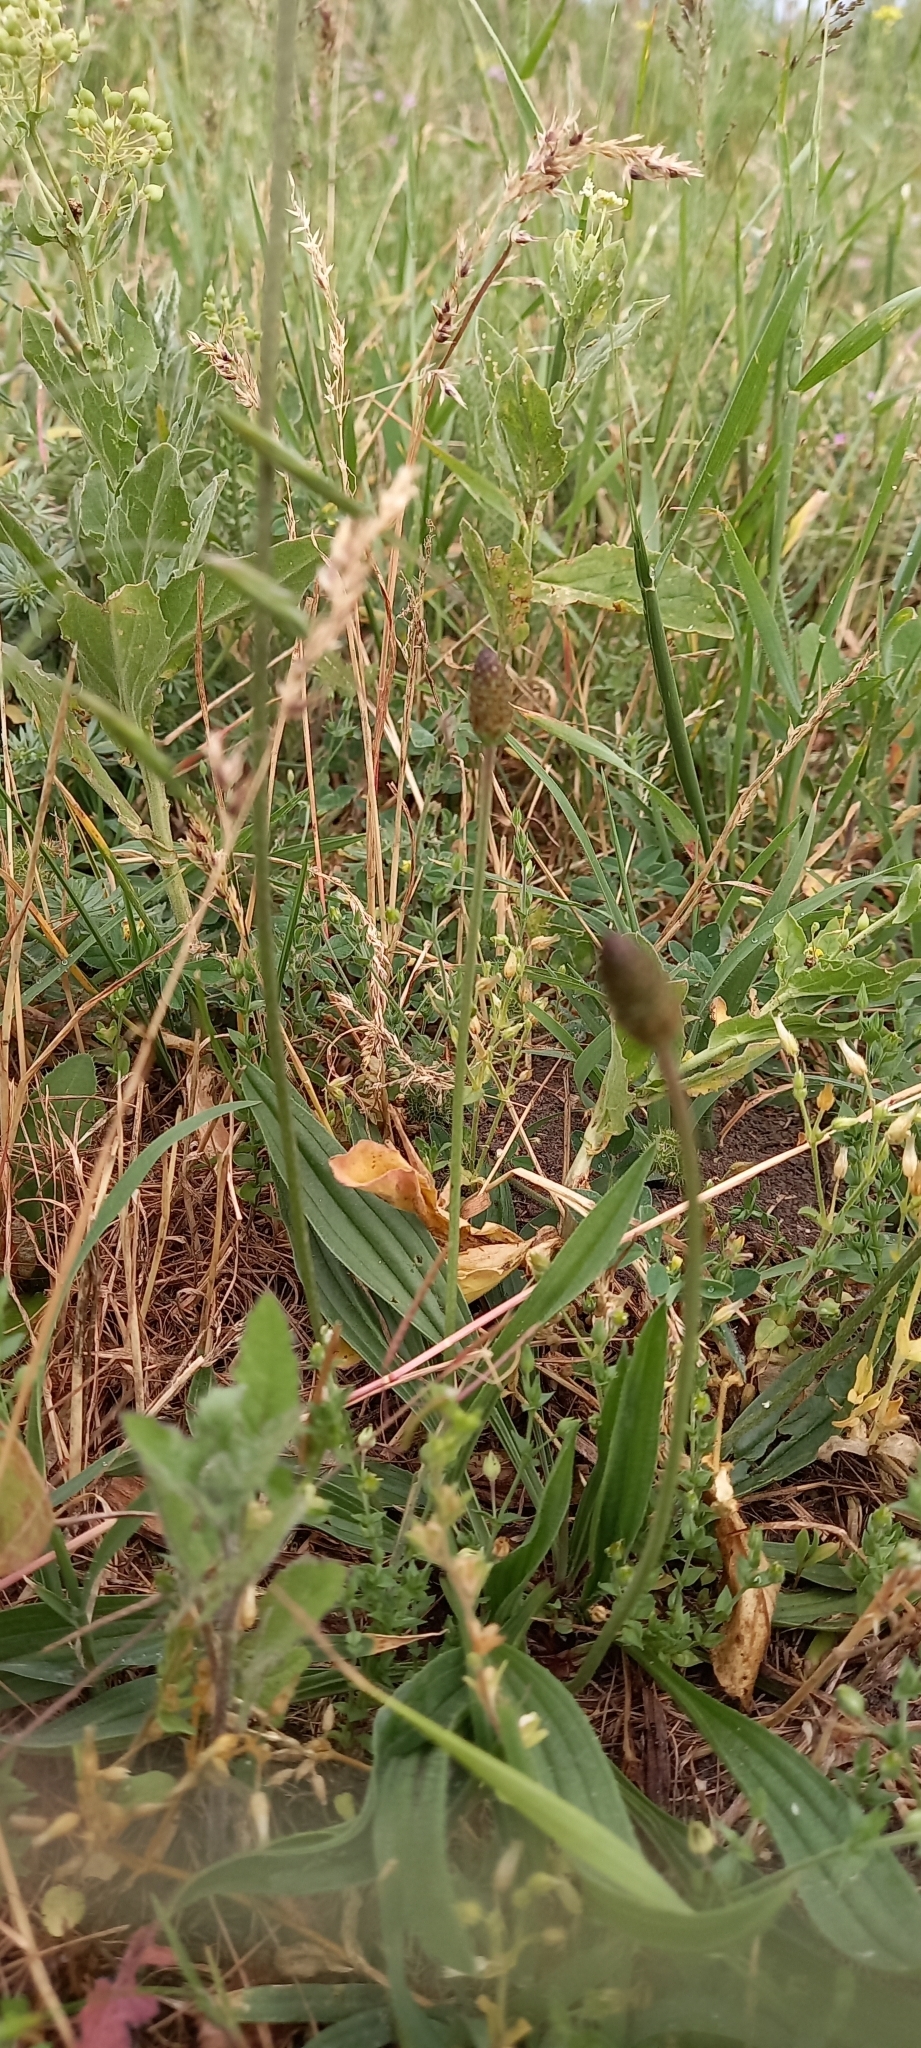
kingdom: Plantae
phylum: Tracheophyta
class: Magnoliopsida
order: Lamiales
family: Plantaginaceae
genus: Plantago
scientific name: Plantago lanceolata
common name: Ribwort plantain
